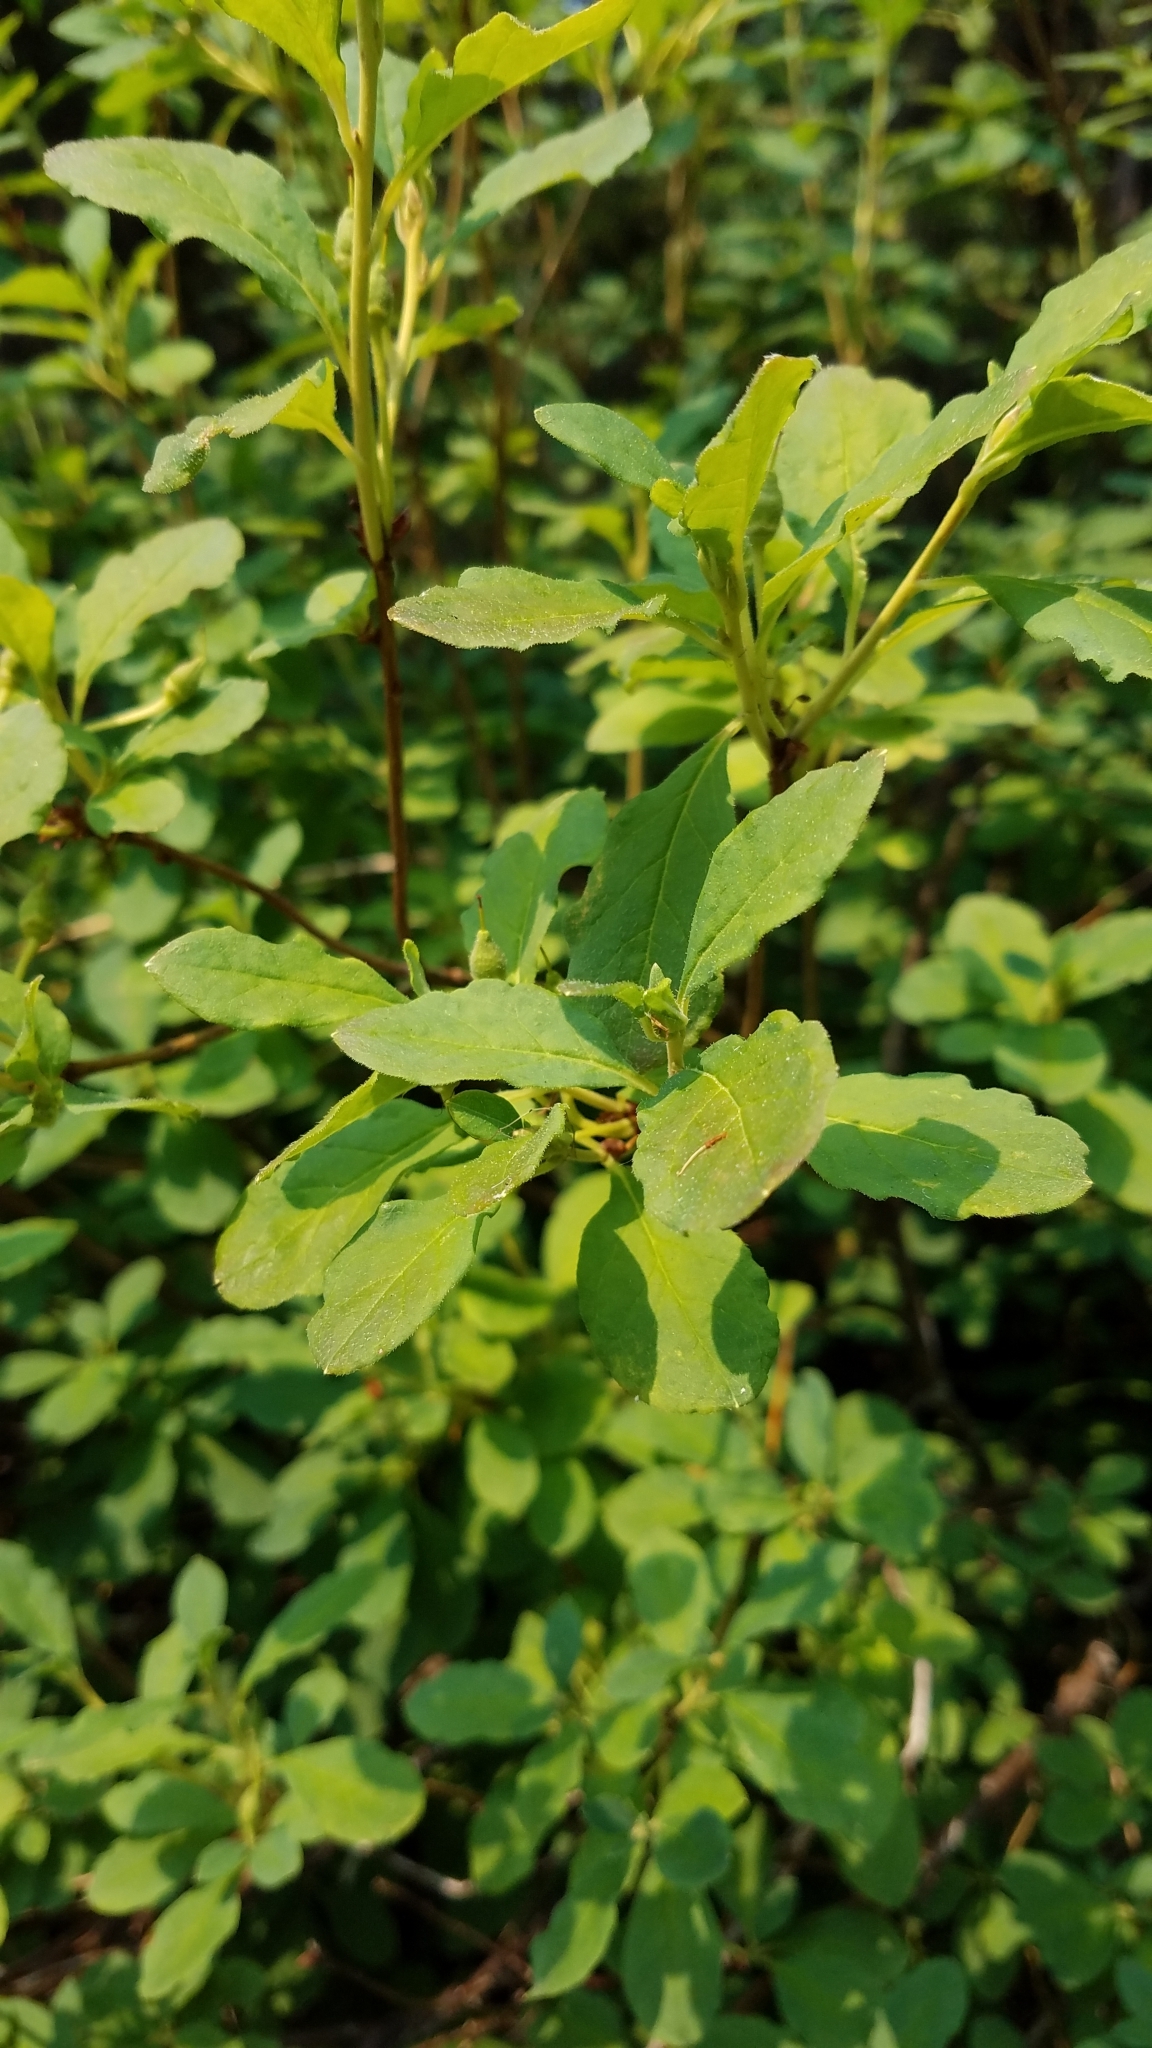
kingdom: Plantae
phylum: Tracheophyta
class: Magnoliopsida
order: Ericales
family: Ericaceae
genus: Rhododendron
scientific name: Rhododendron menziesii
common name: Pacific menziesia
